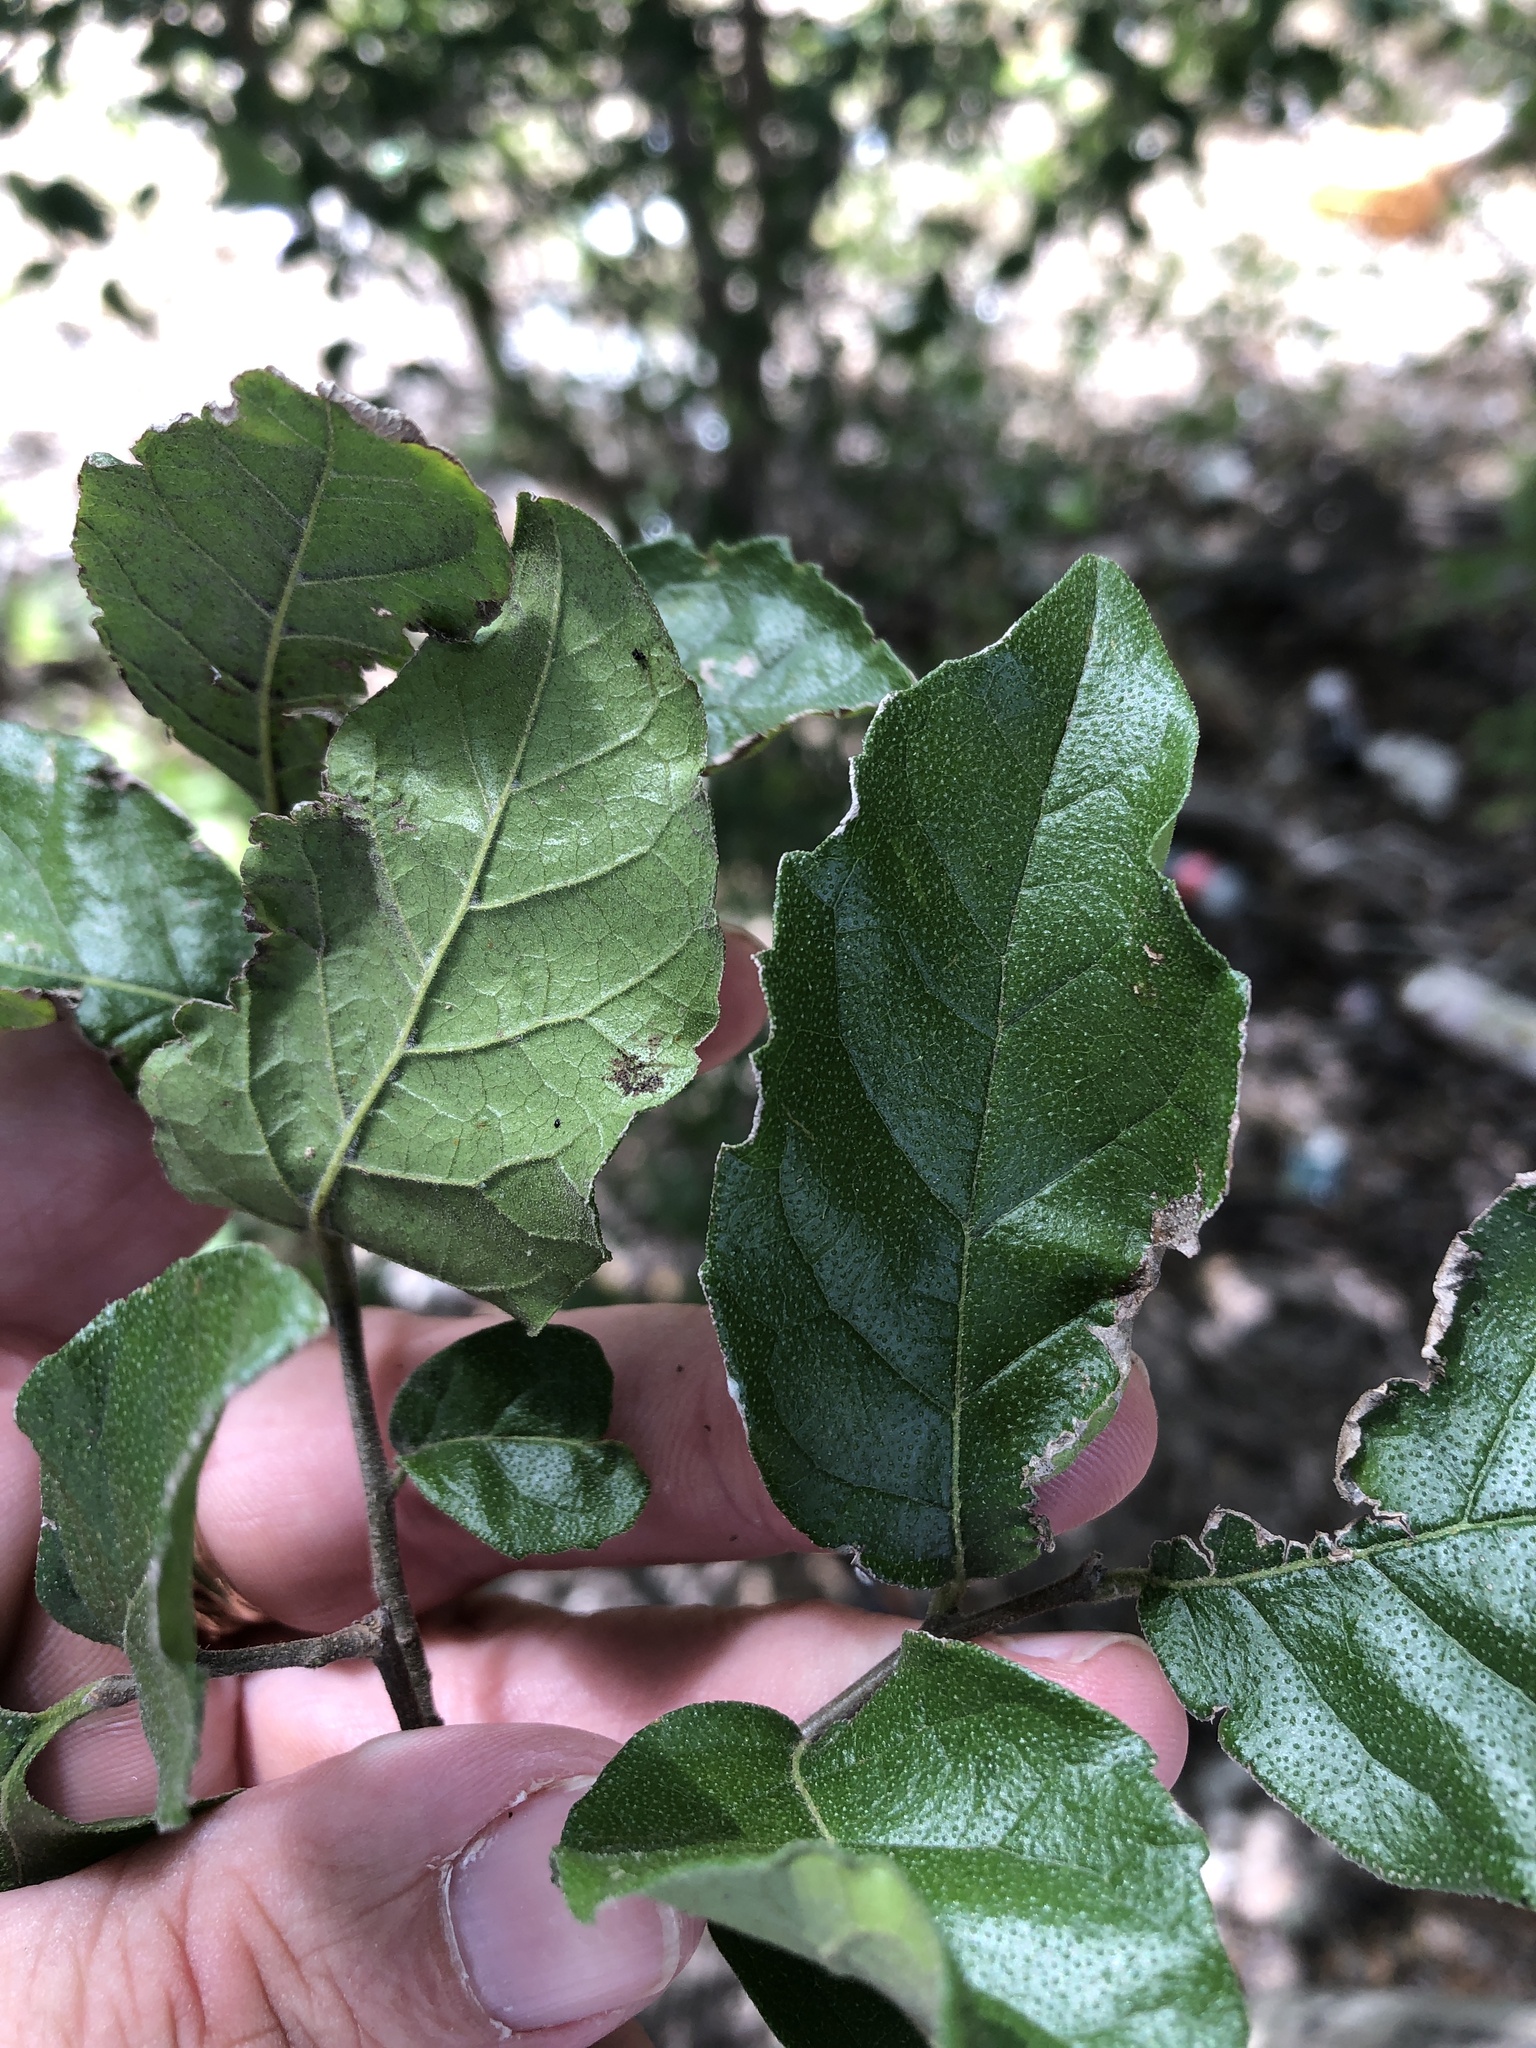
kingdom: Plantae
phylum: Tracheophyta
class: Magnoliopsida
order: Boraginales
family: Ehretiaceae
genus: Ehretia
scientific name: Ehretia anacua
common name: Sugarberry
